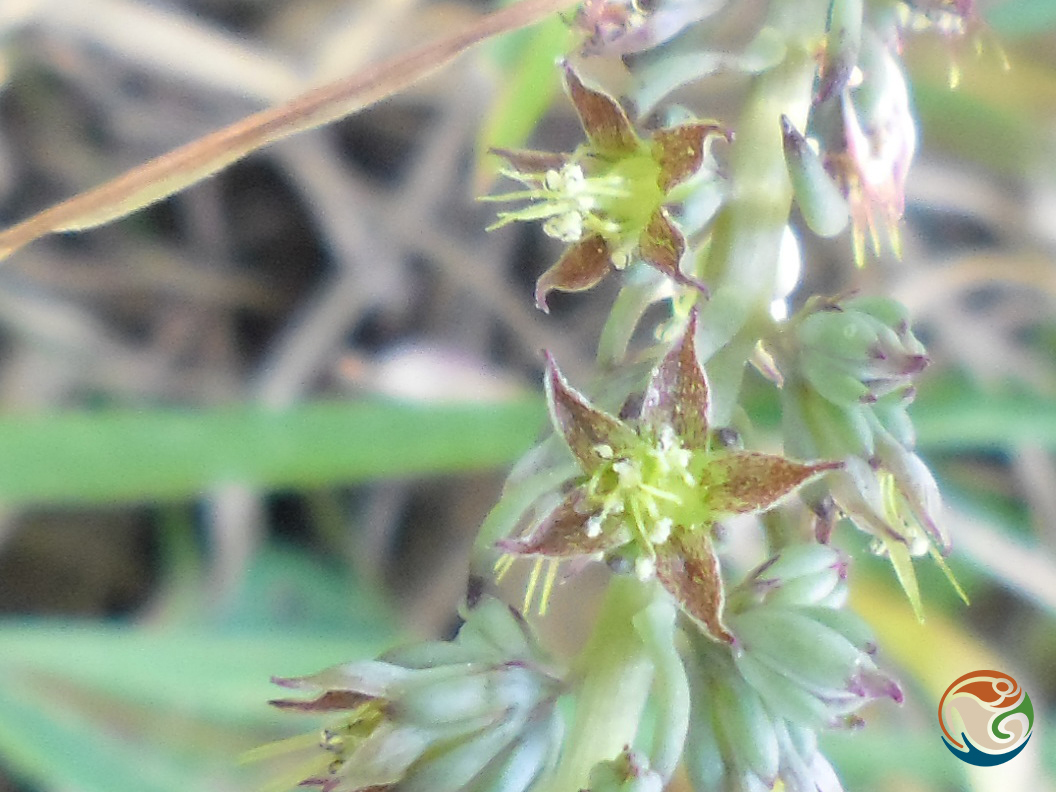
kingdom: Plantae
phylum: Tracheophyta
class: Magnoliopsida
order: Saxifragales
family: Crassulaceae
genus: Thompsonella
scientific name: Thompsonella minutiflora
